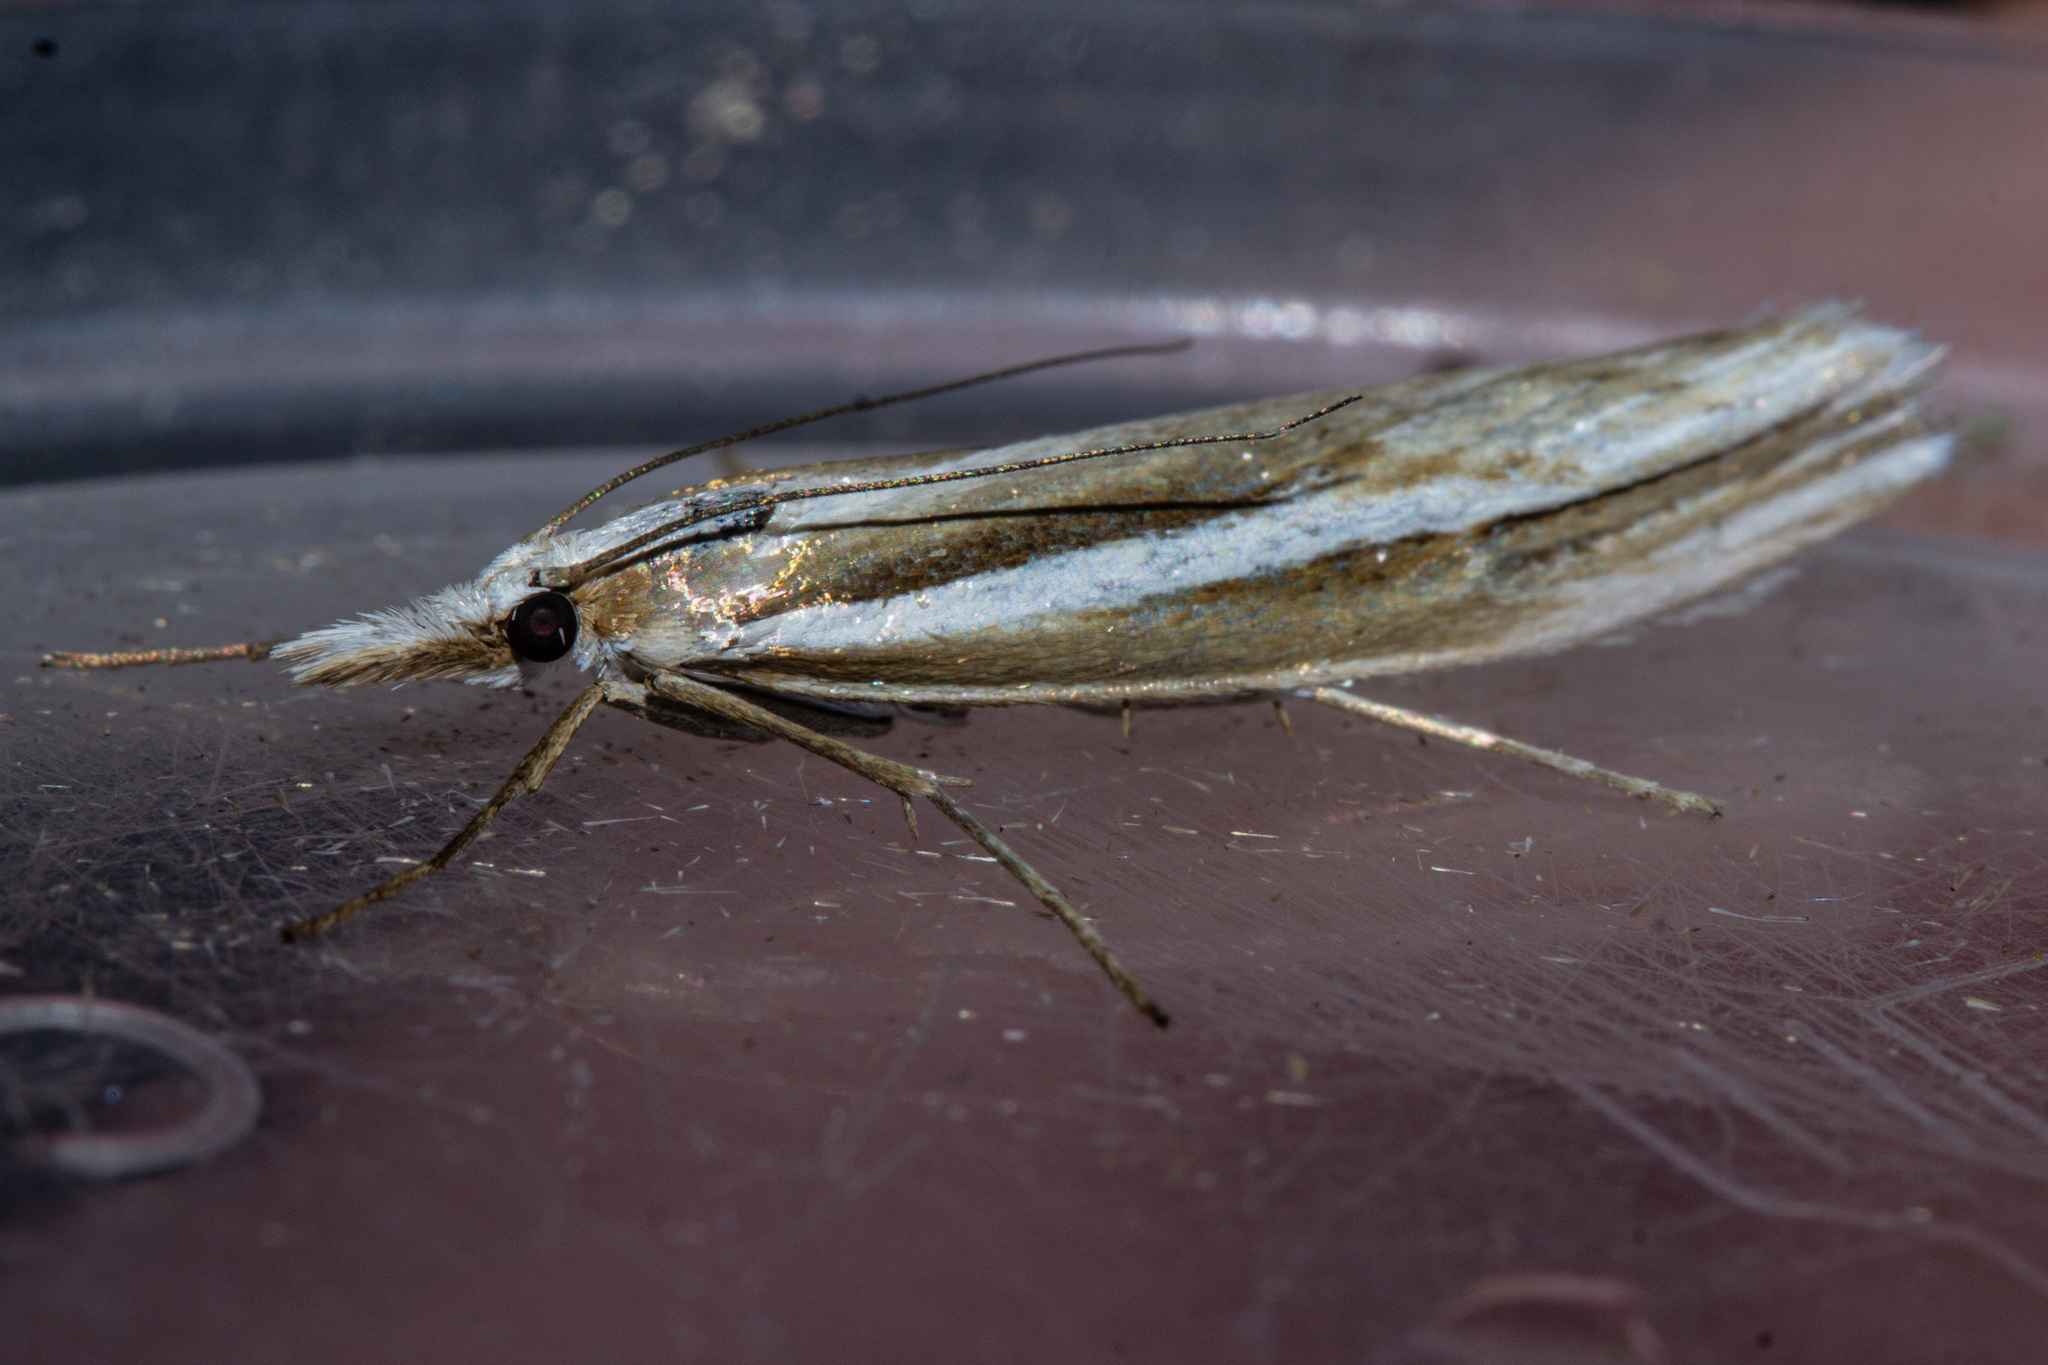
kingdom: Animalia
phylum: Arthropoda
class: Insecta
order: Lepidoptera
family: Crambidae
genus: Orocrambus
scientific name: Orocrambus ramosellus
